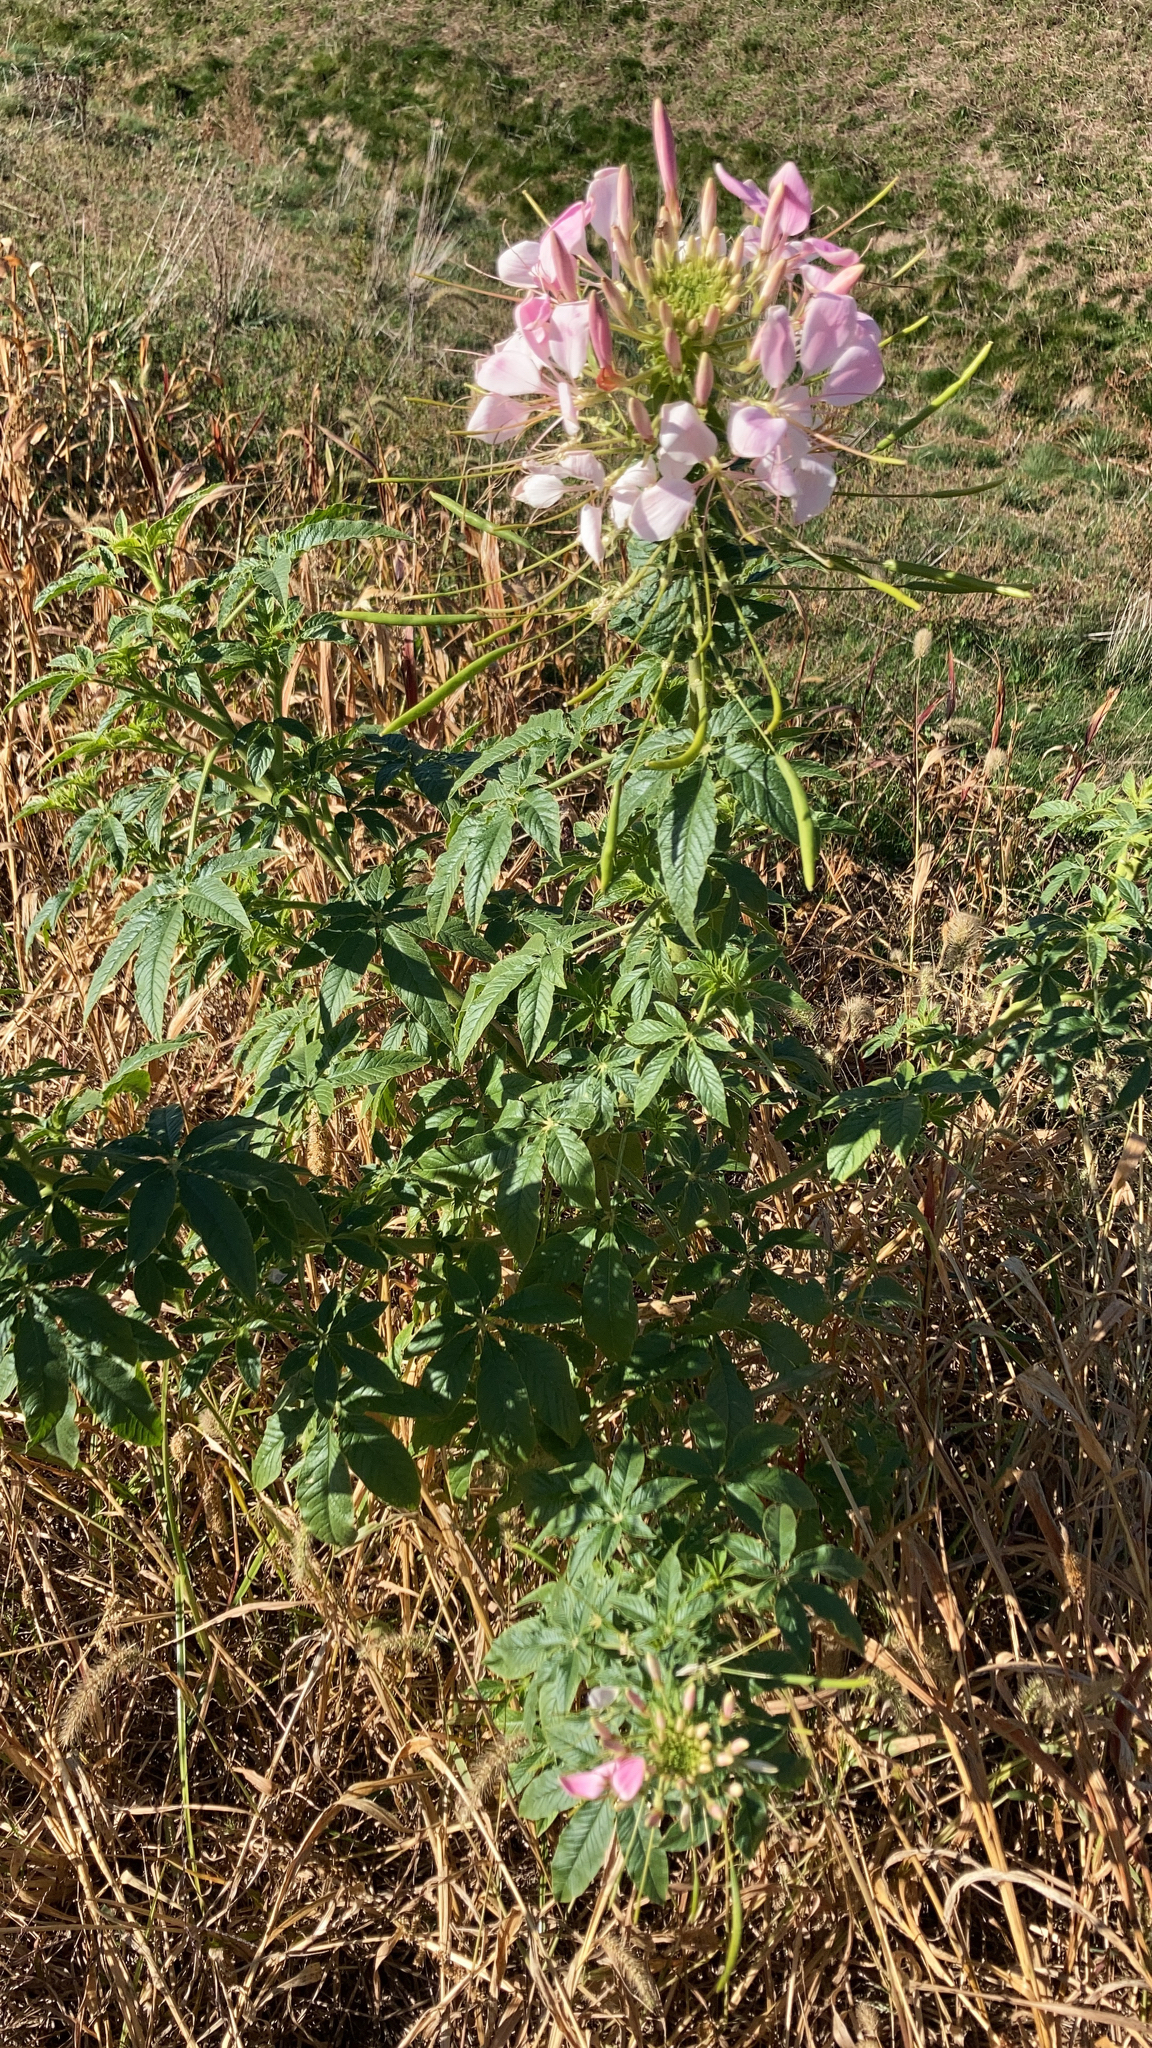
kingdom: Plantae
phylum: Tracheophyta
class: Magnoliopsida
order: Brassicales
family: Cleomaceae
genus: Tarenaya
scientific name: Tarenaya houtteana
